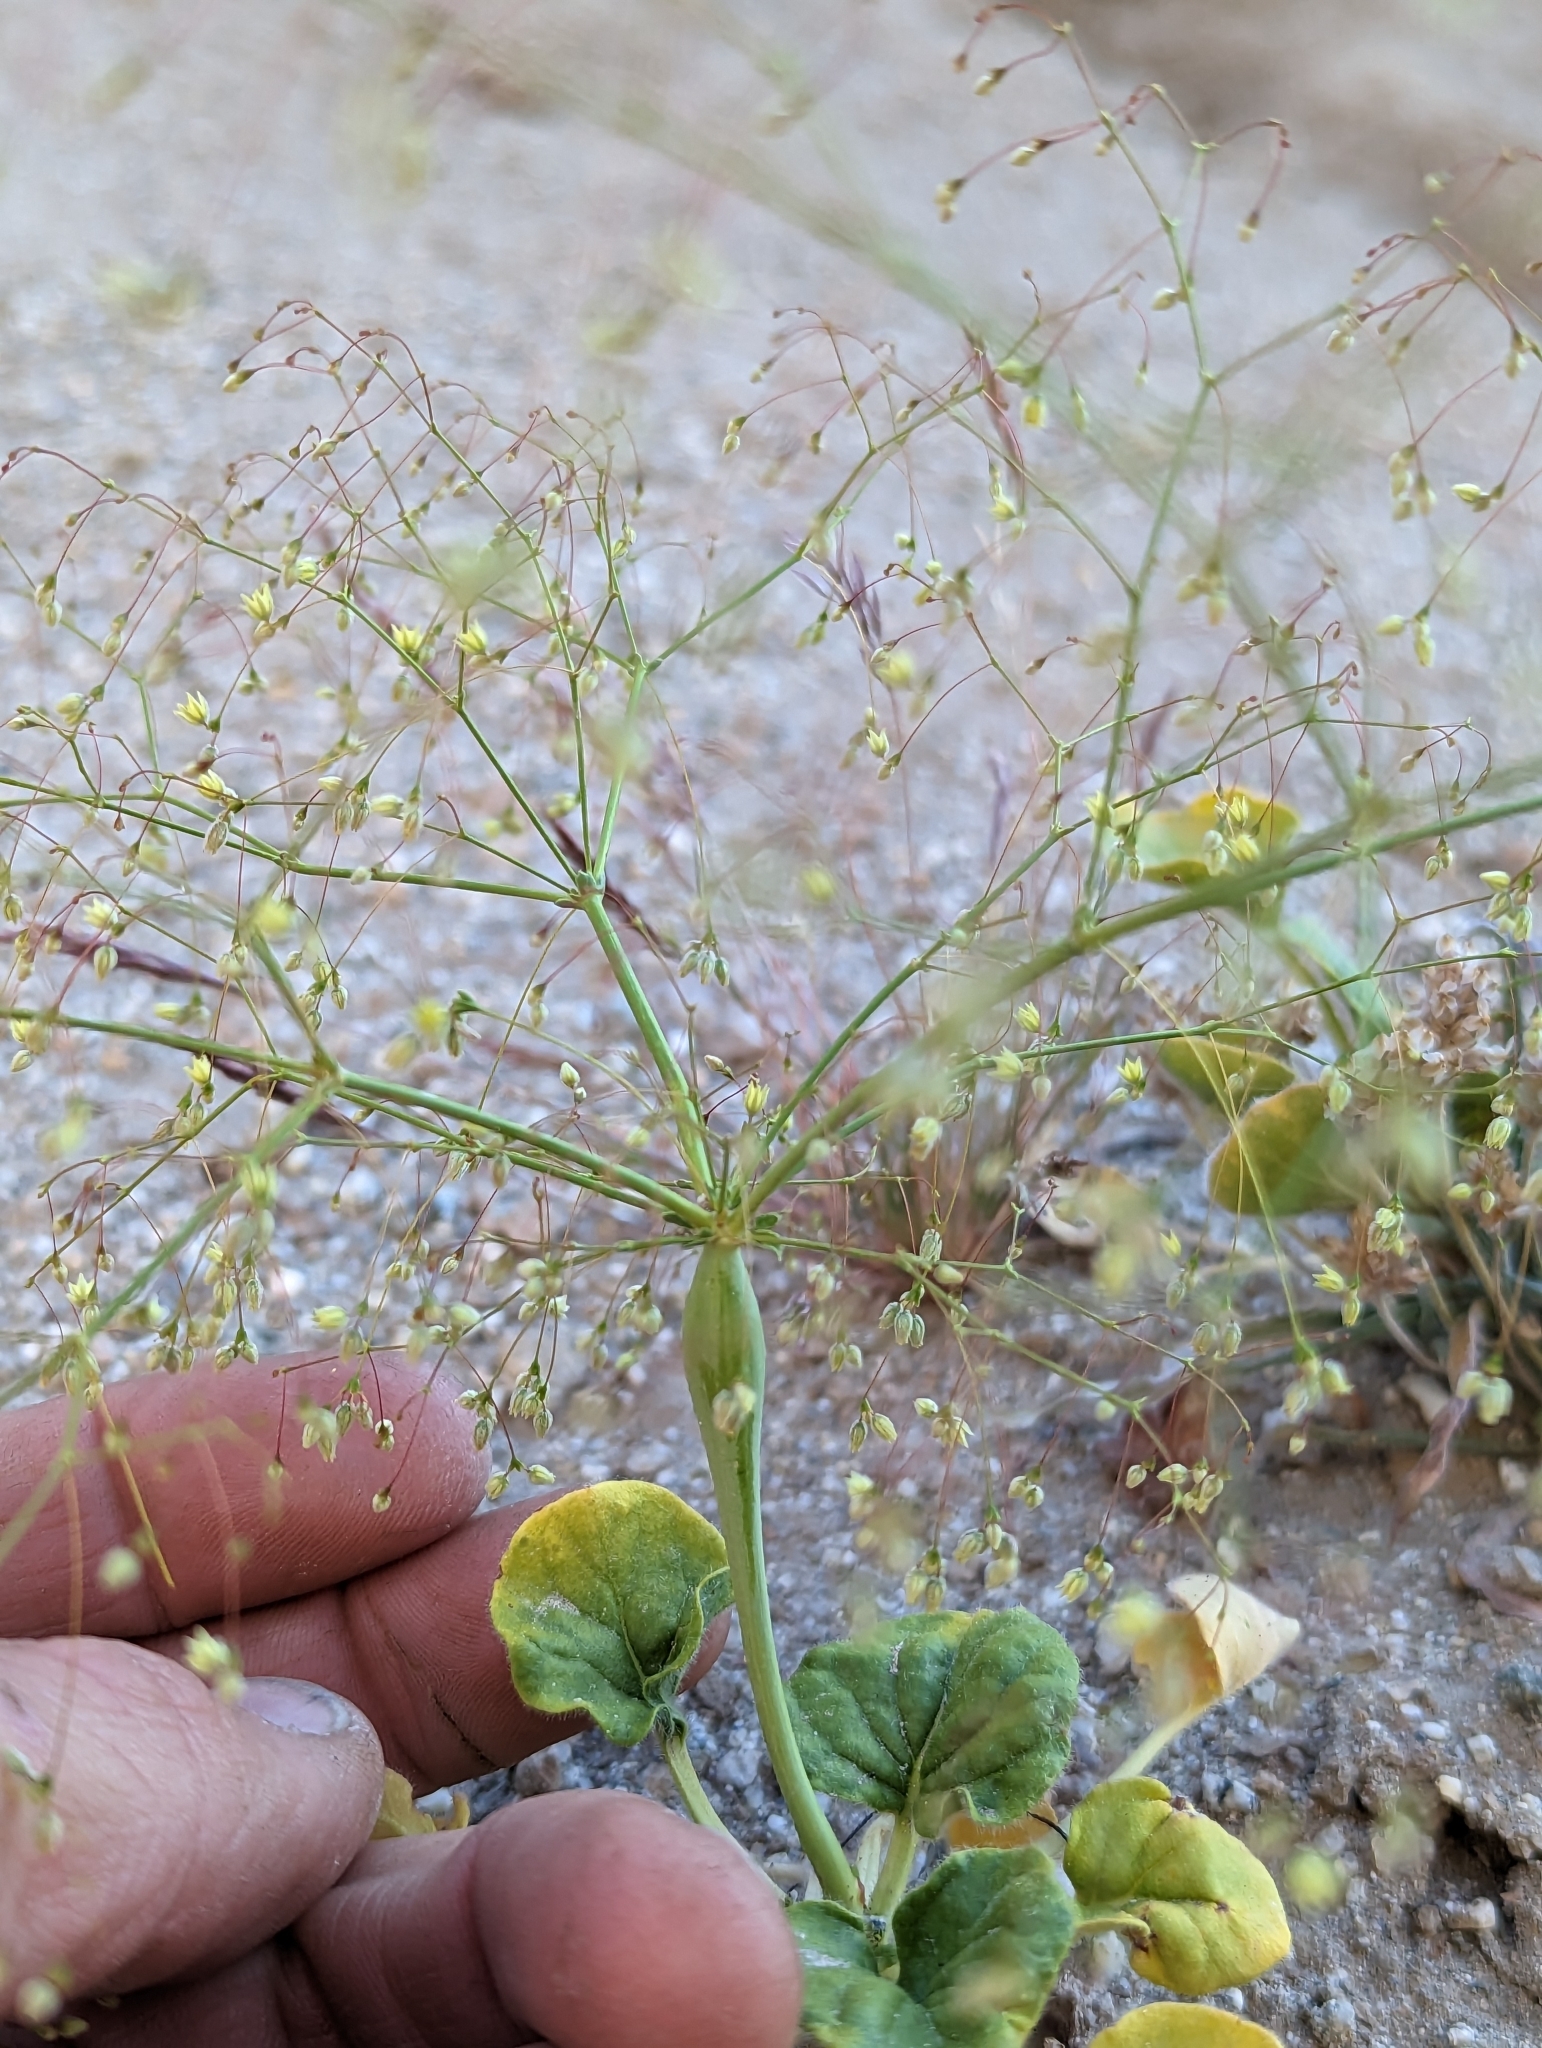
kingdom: Plantae
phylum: Tracheophyta
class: Magnoliopsida
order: Caryophyllales
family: Polygonaceae
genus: Eriogonum
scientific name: Eriogonum trichopes
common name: Little desert trumpet
